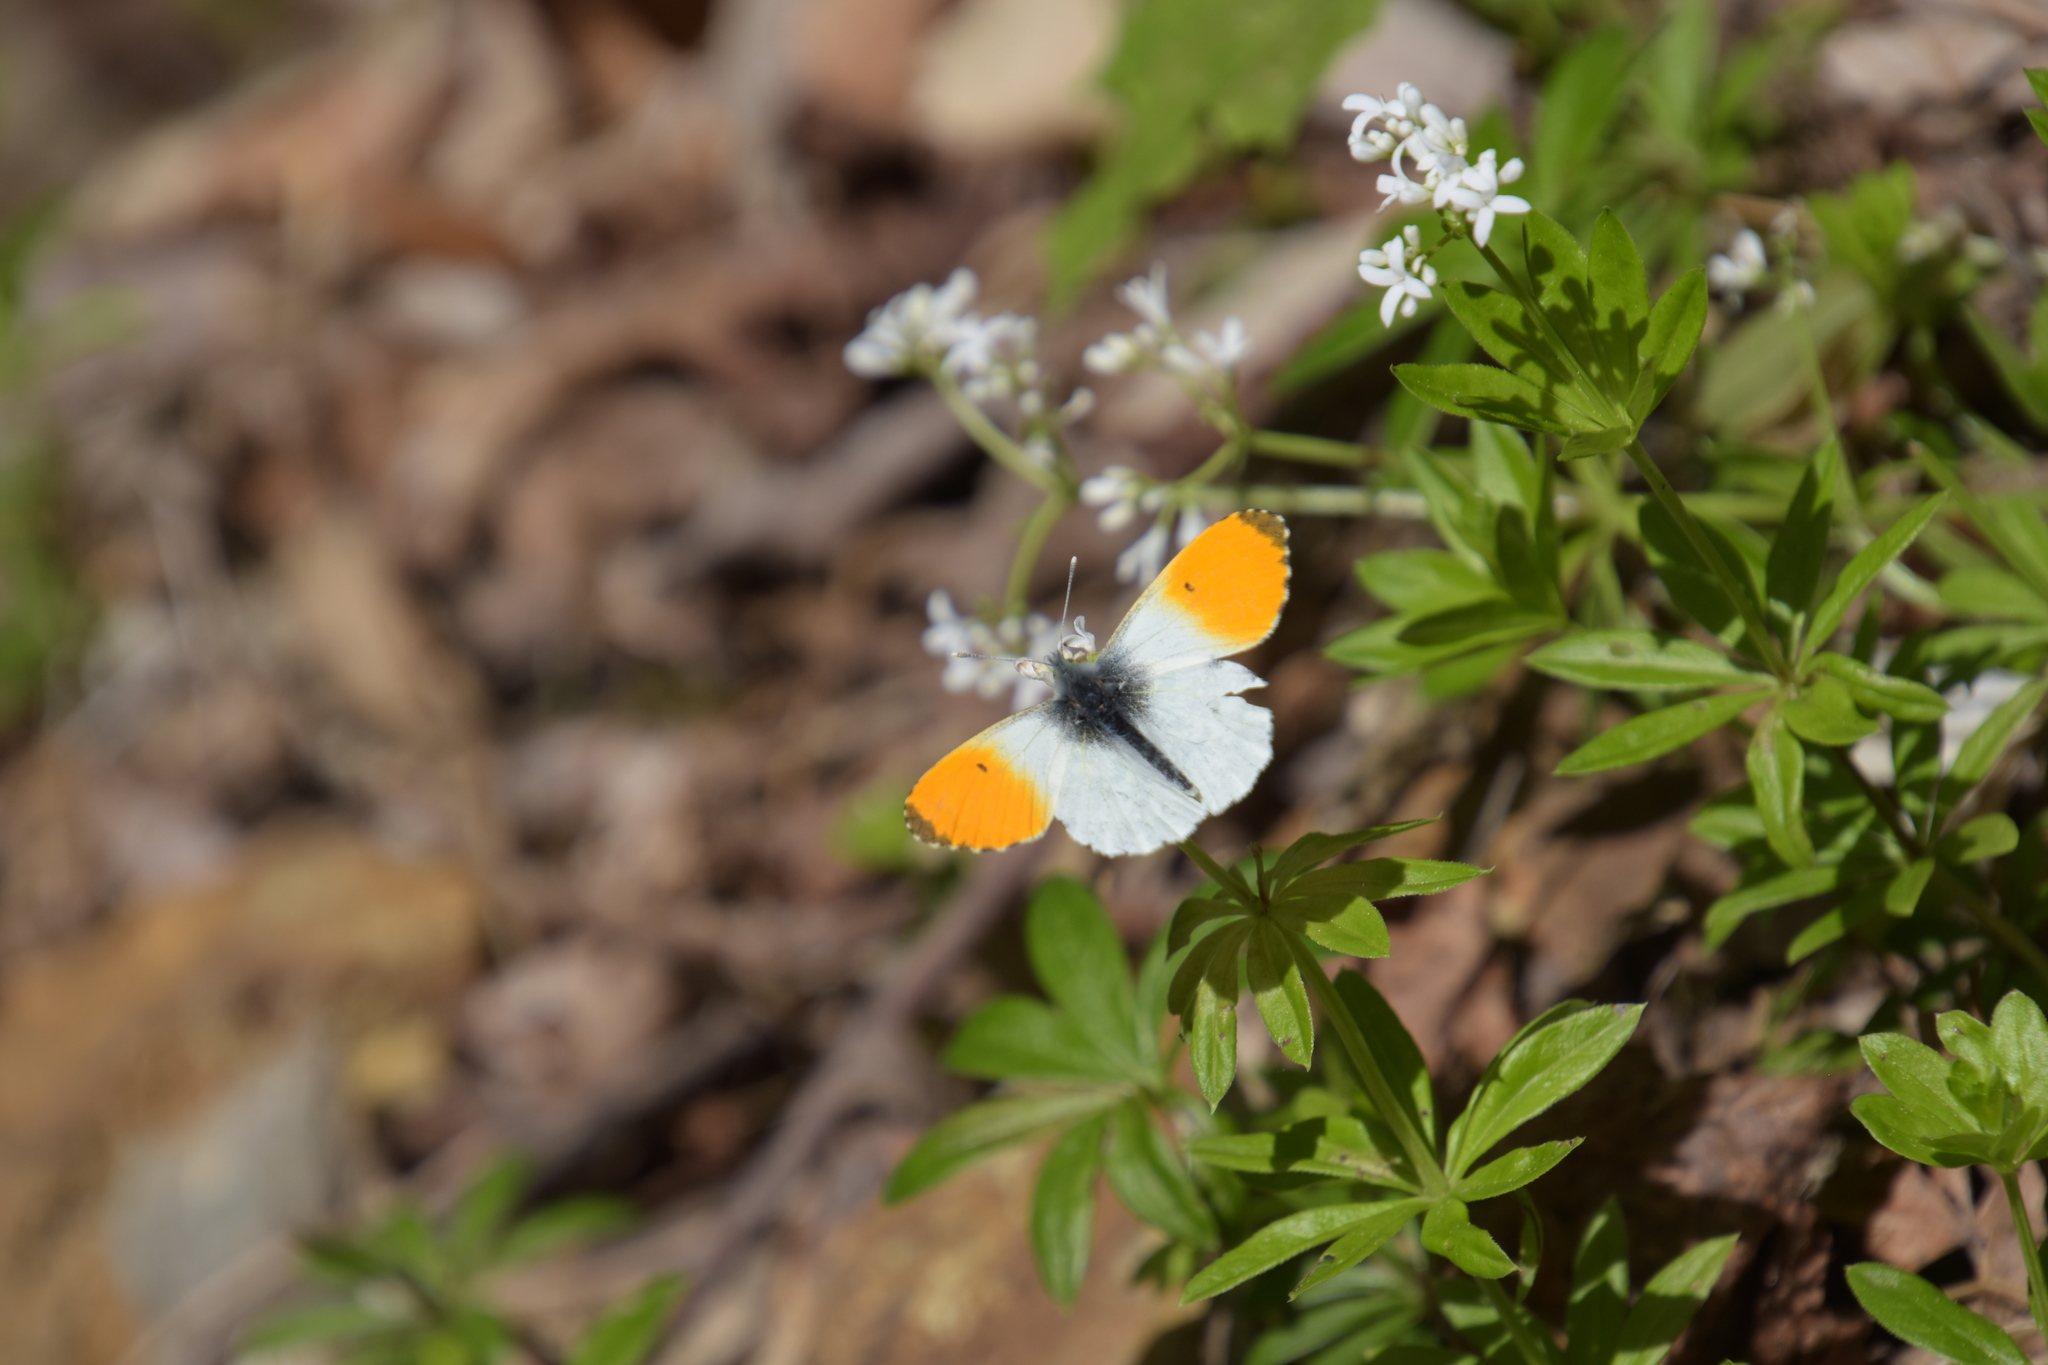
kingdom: Animalia
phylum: Arthropoda
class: Insecta
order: Lepidoptera
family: Pieridae
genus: Anthocharis
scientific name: Anthocharis cardamines
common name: Orange-tip
